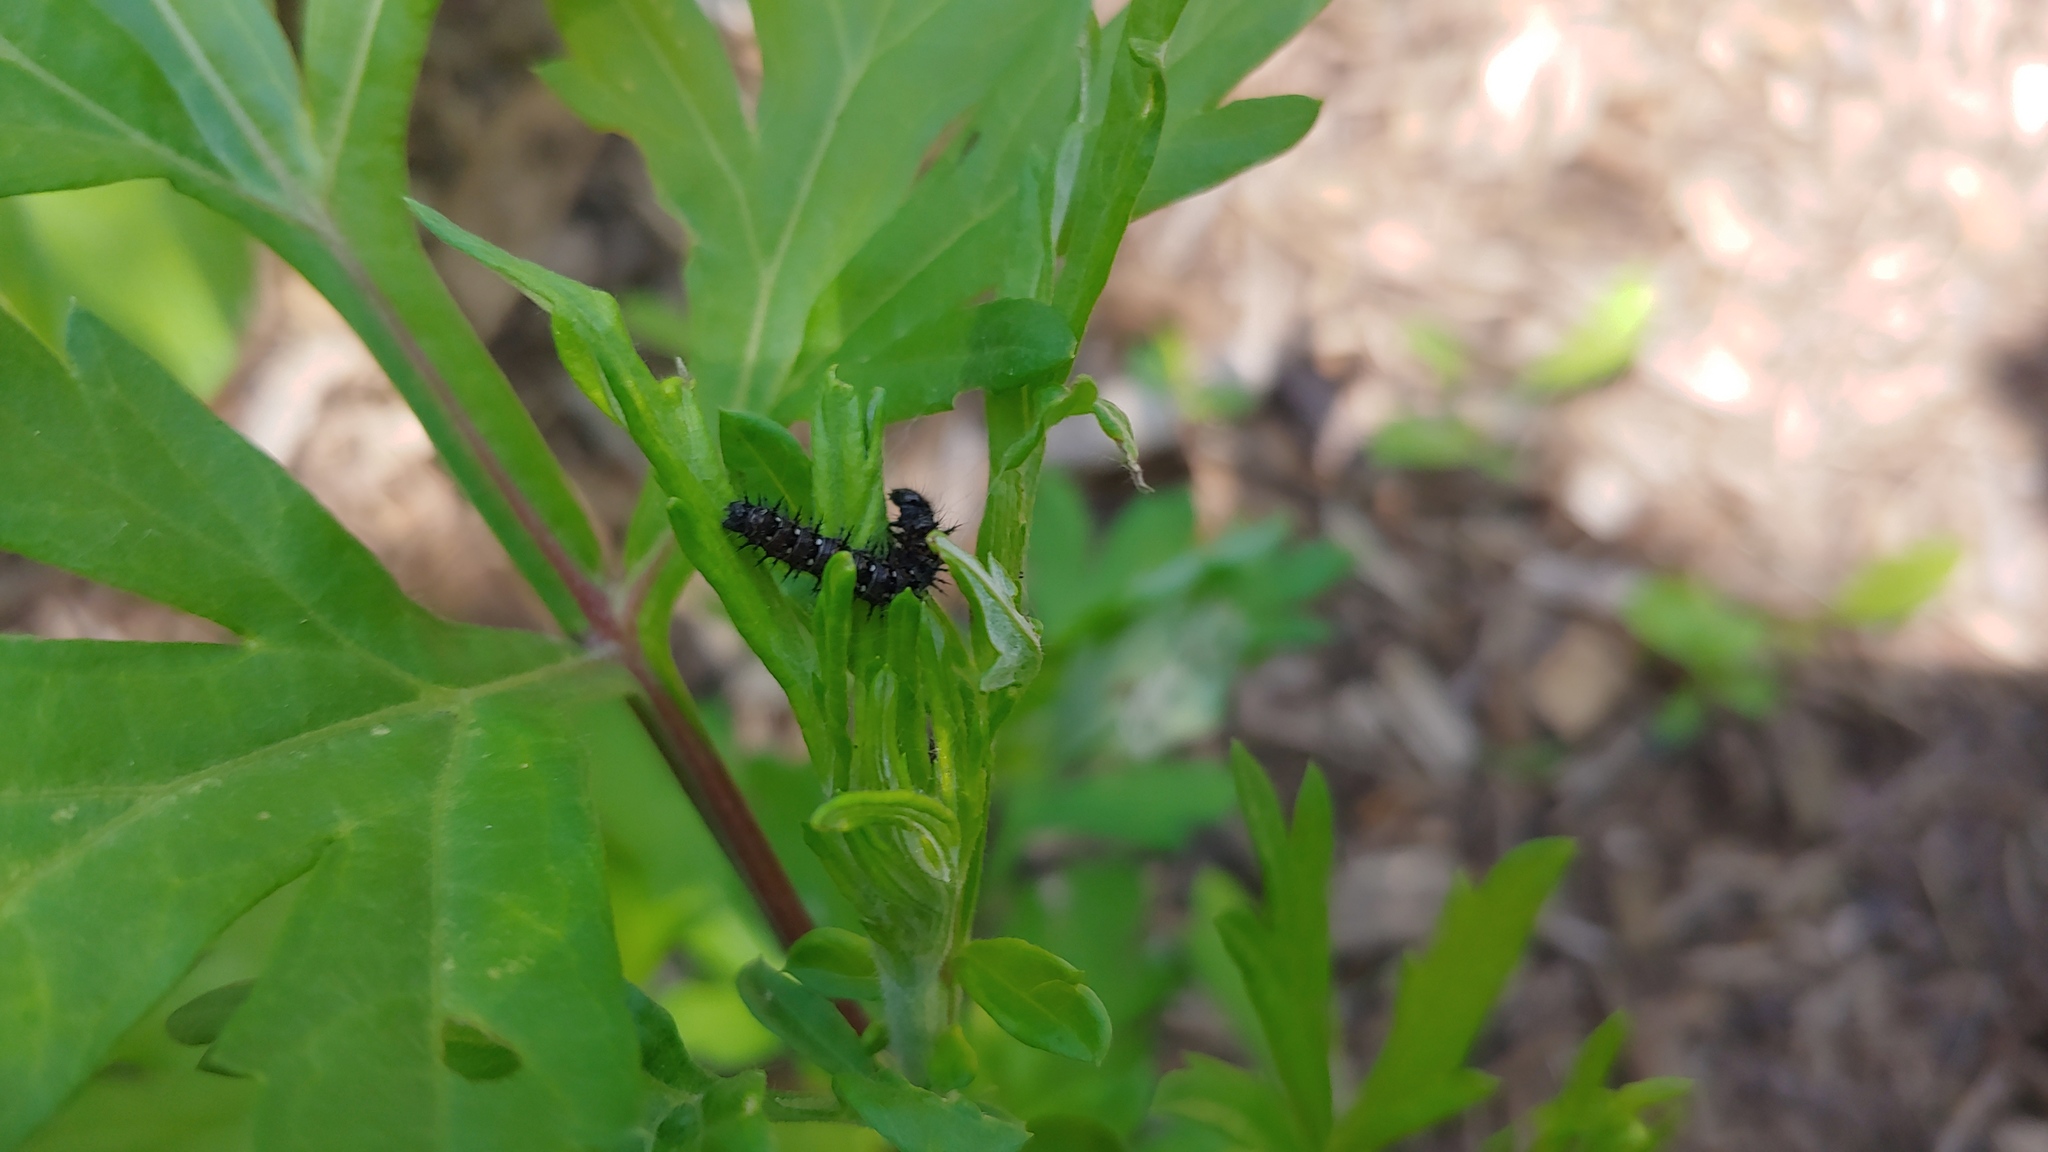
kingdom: Animalia
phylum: Arthropoda
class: Insecta
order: Lepidoptera
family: Nymphalidae
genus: Vanessa
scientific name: Vanessa cardui
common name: Painted lady
